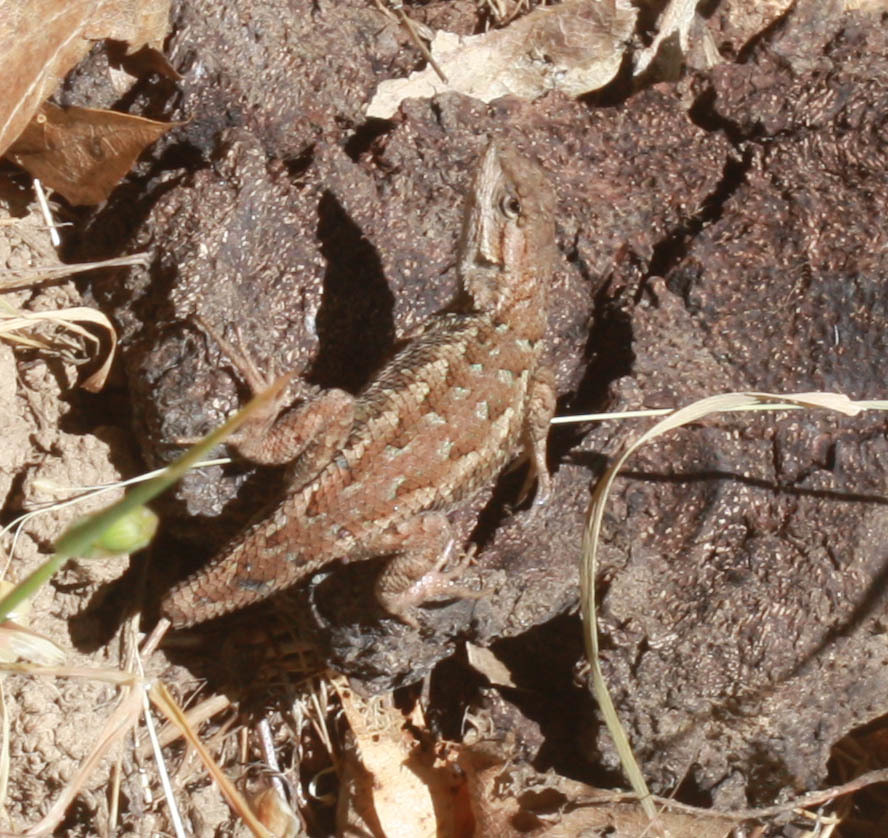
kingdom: Animalia
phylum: Chordata
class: Squamata
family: Phrynosomatidae
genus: Sceloporus
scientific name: Sceloporus occidentalis
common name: Western fence lizard
